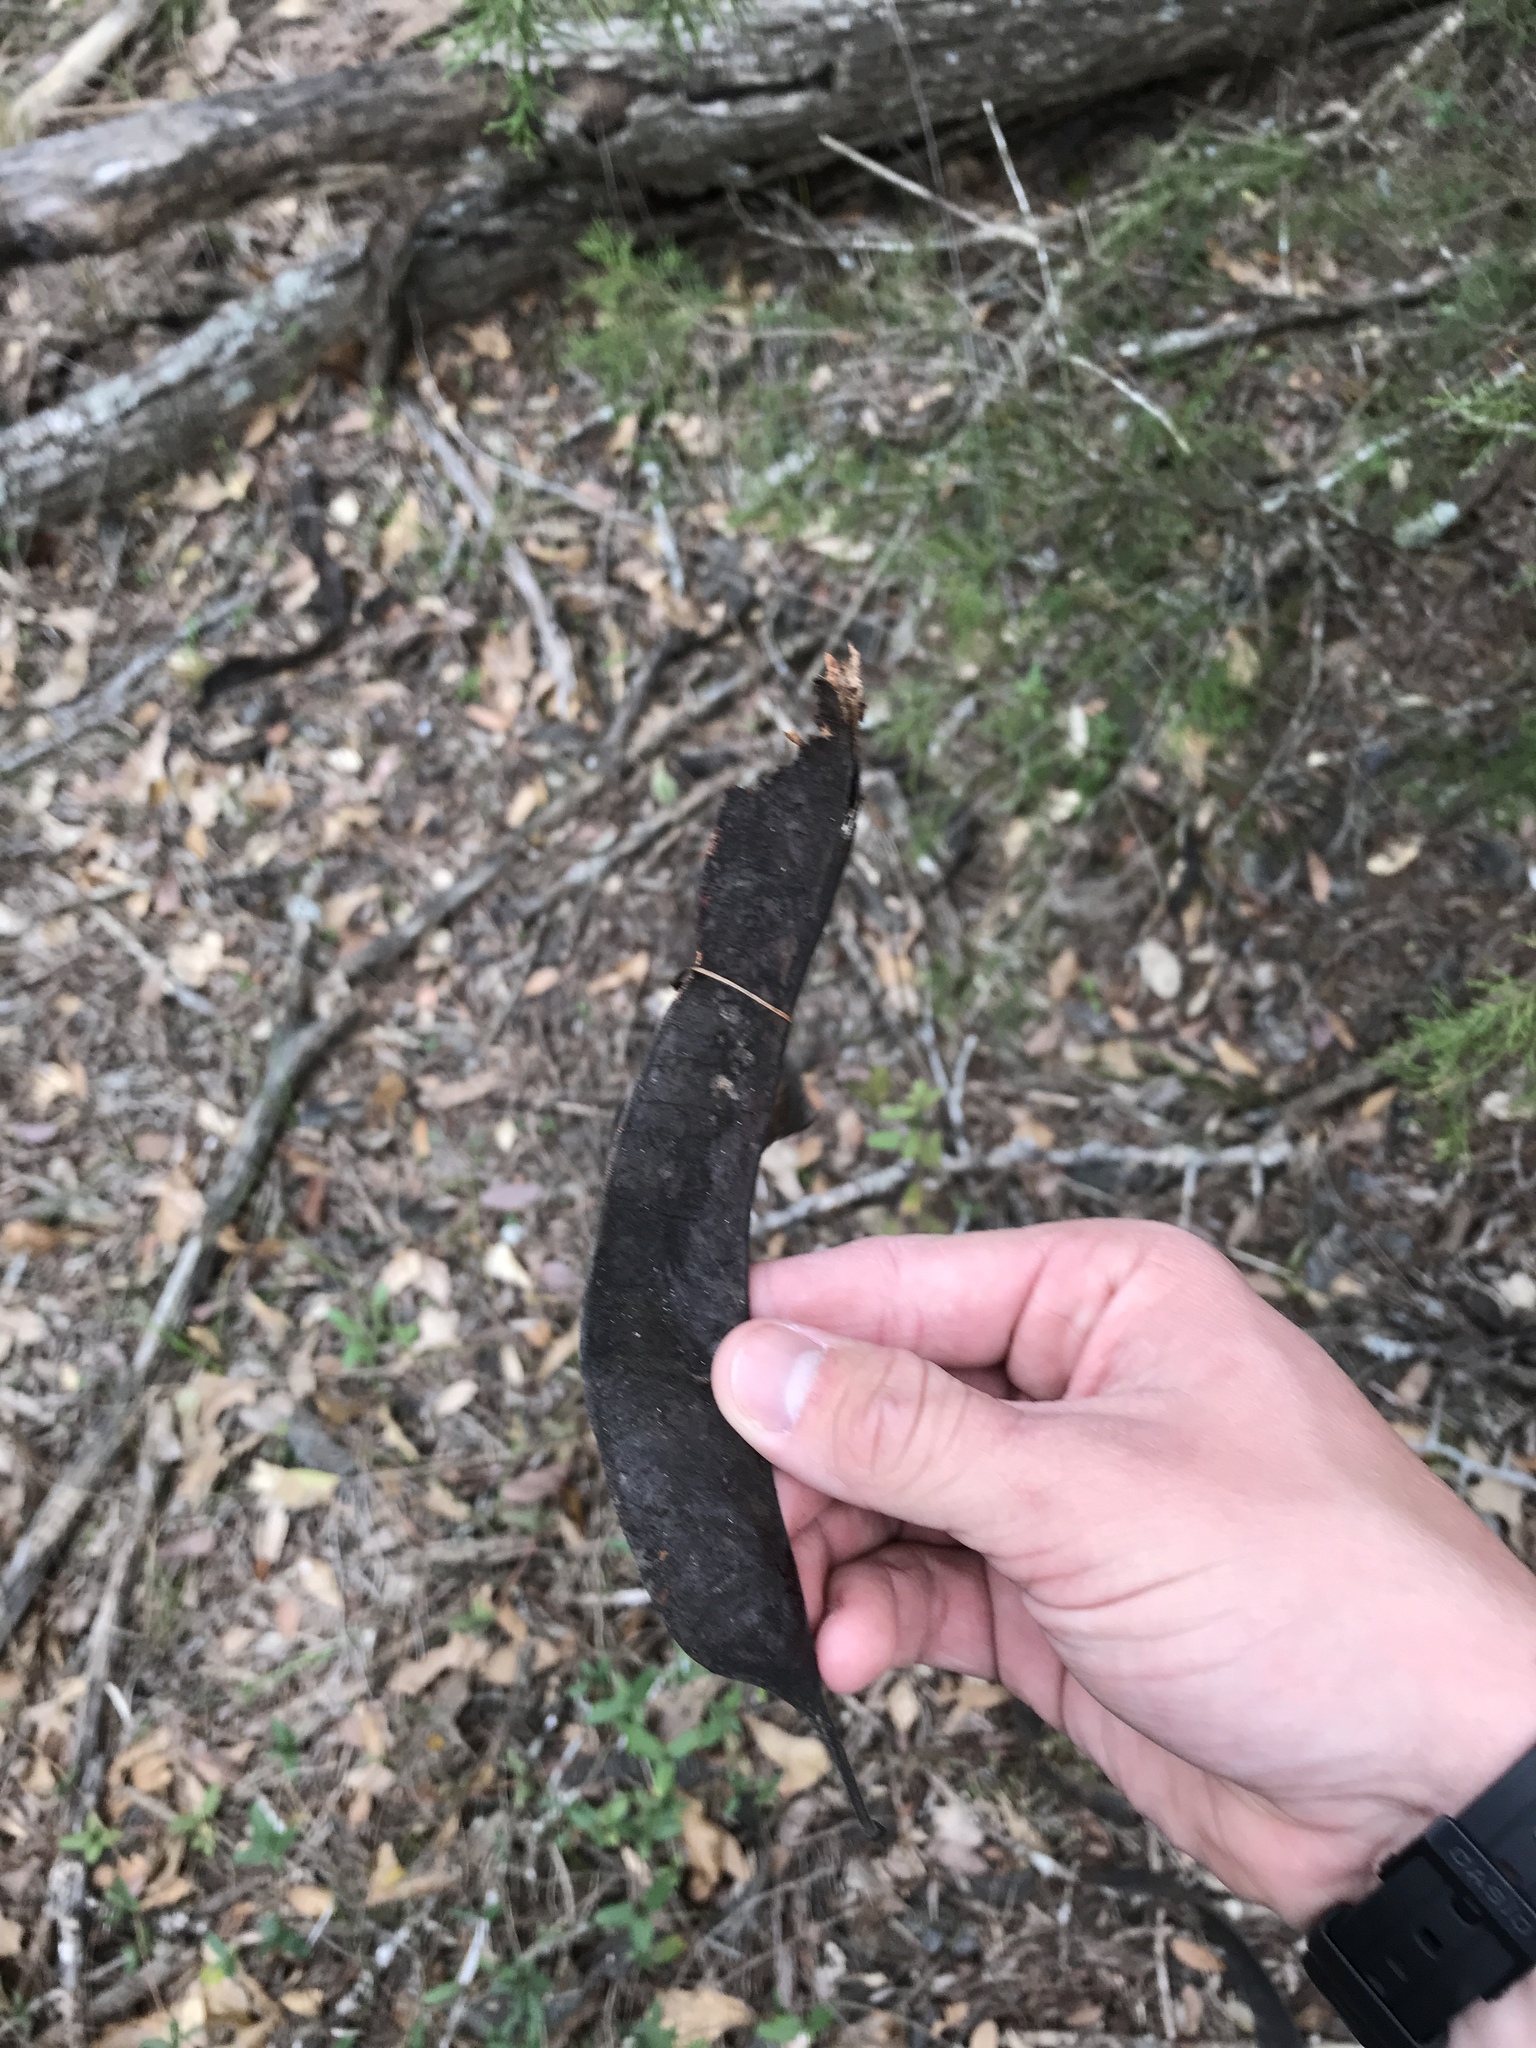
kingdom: Plantae
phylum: Tracheophyta
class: Magnoliopsida
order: Fabales
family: Fabaceae
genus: Gleditsia
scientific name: Gleditsia triacanthos
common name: Common honeylocust
